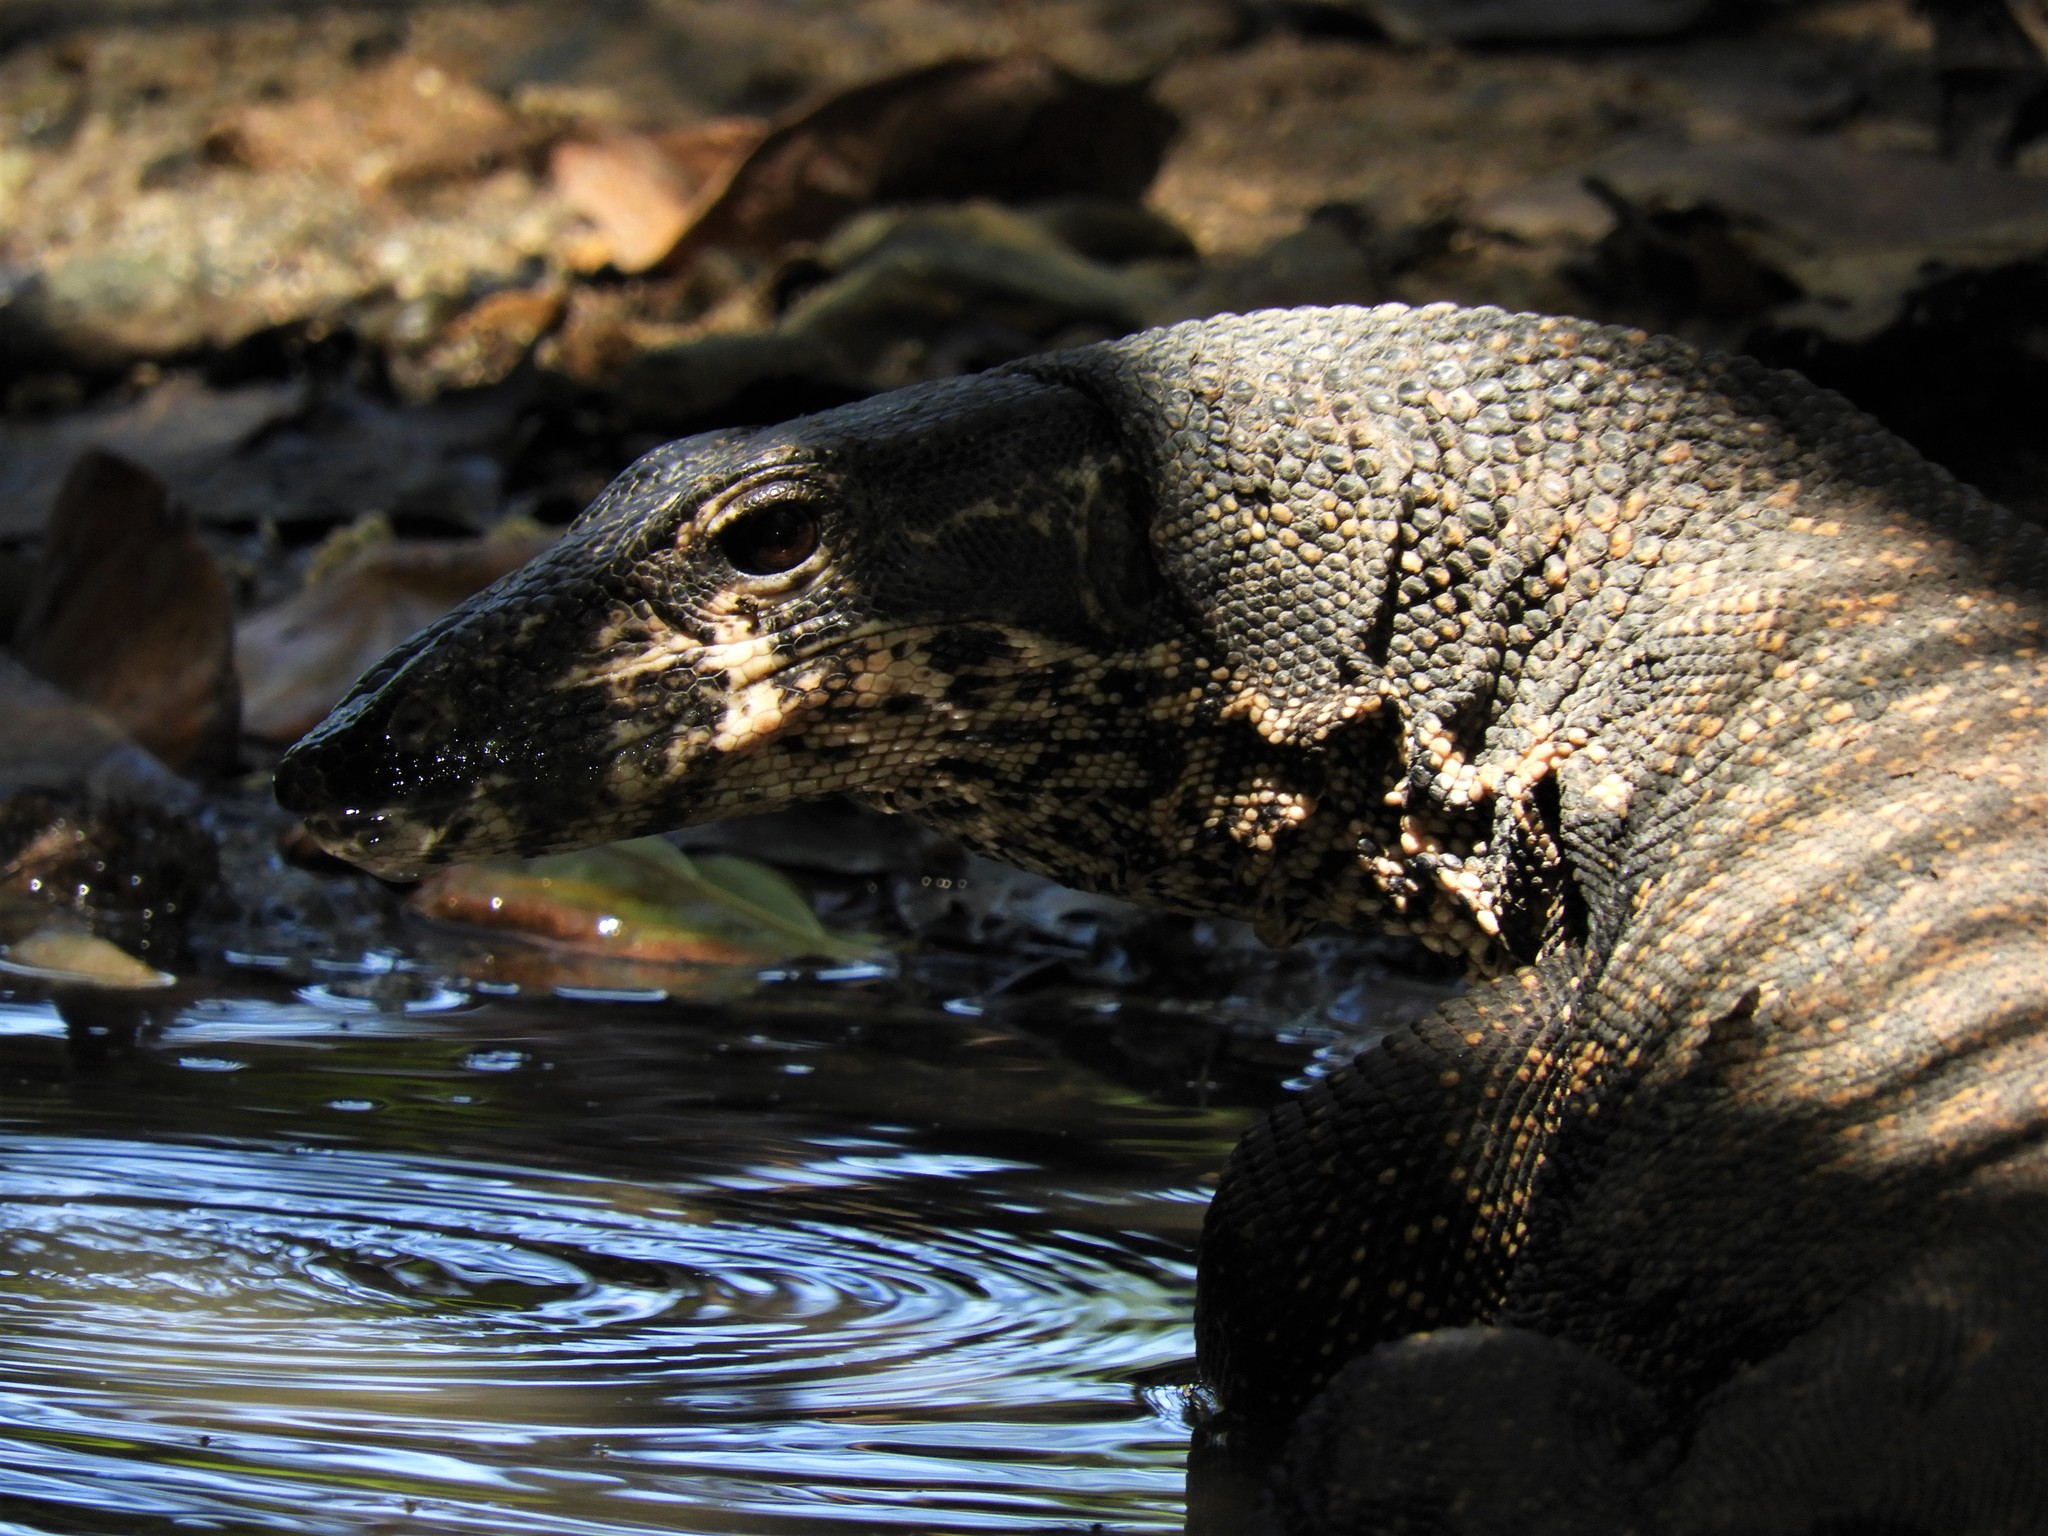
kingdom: Animalia
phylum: Chordata
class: Squamata
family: Varanidae
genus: Varanus
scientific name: Varanus palawanensis
